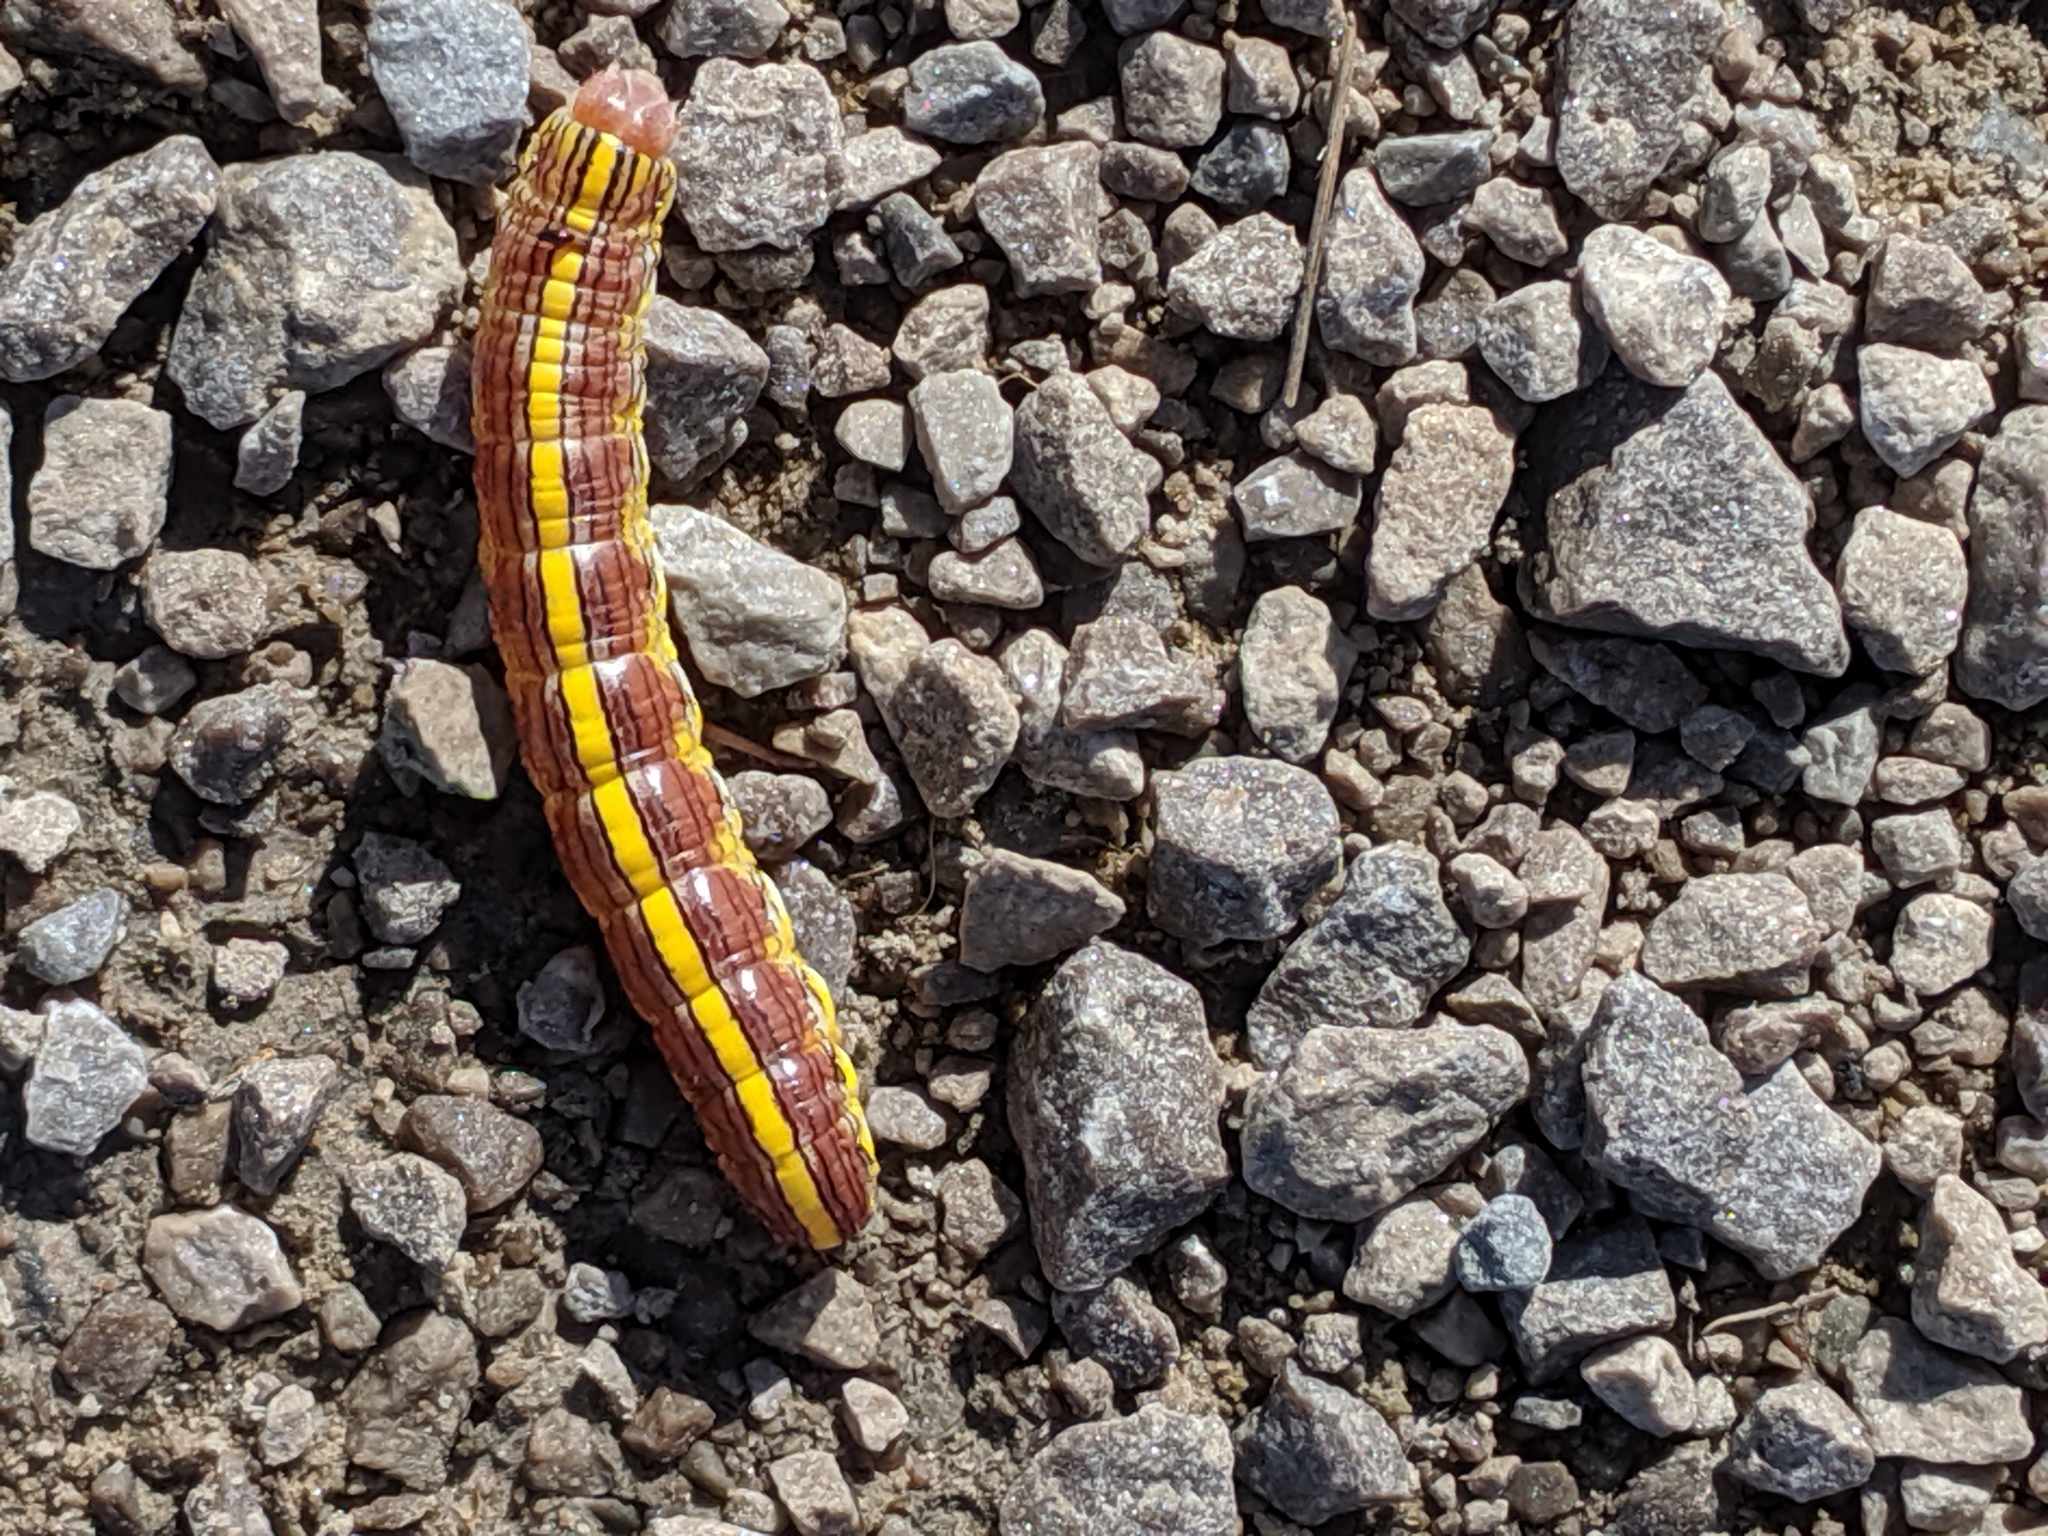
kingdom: Animalia
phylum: Arthropoda
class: Insecta
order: Lepidoptera
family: Noctuidae
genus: Cucullia
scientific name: Cucullia asteroides
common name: Asteroid moth
